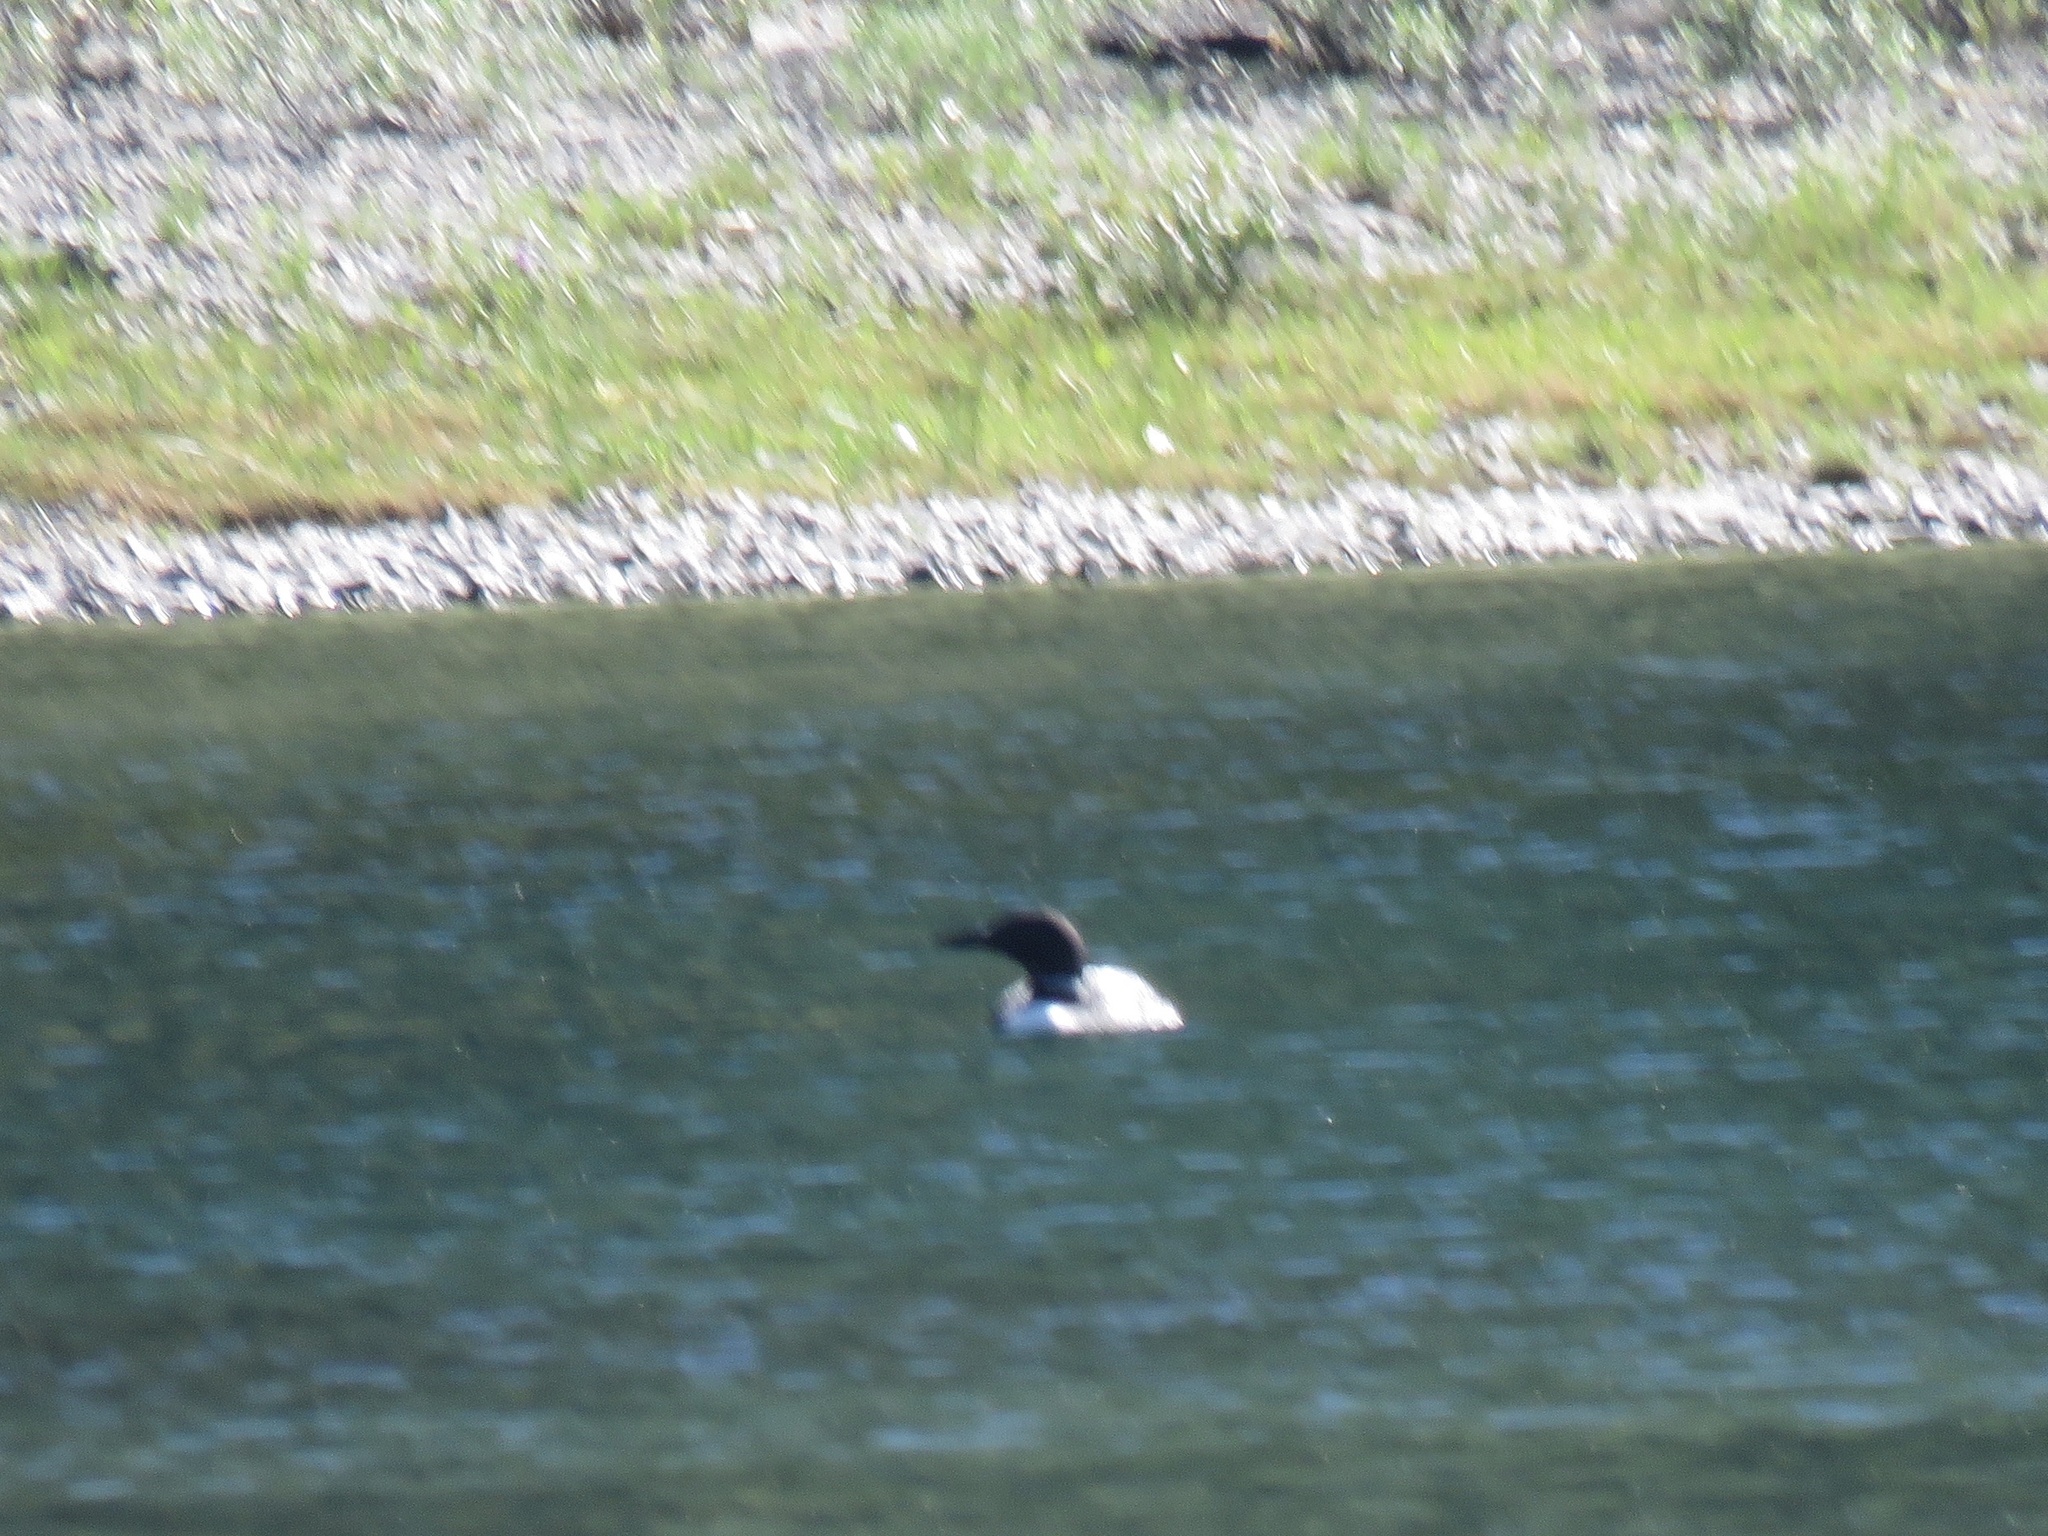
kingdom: Animalia
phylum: Chordata
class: Aves
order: Gaviiformes
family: Gaviidae
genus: Gavia
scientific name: Gavia immer
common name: Common loon
